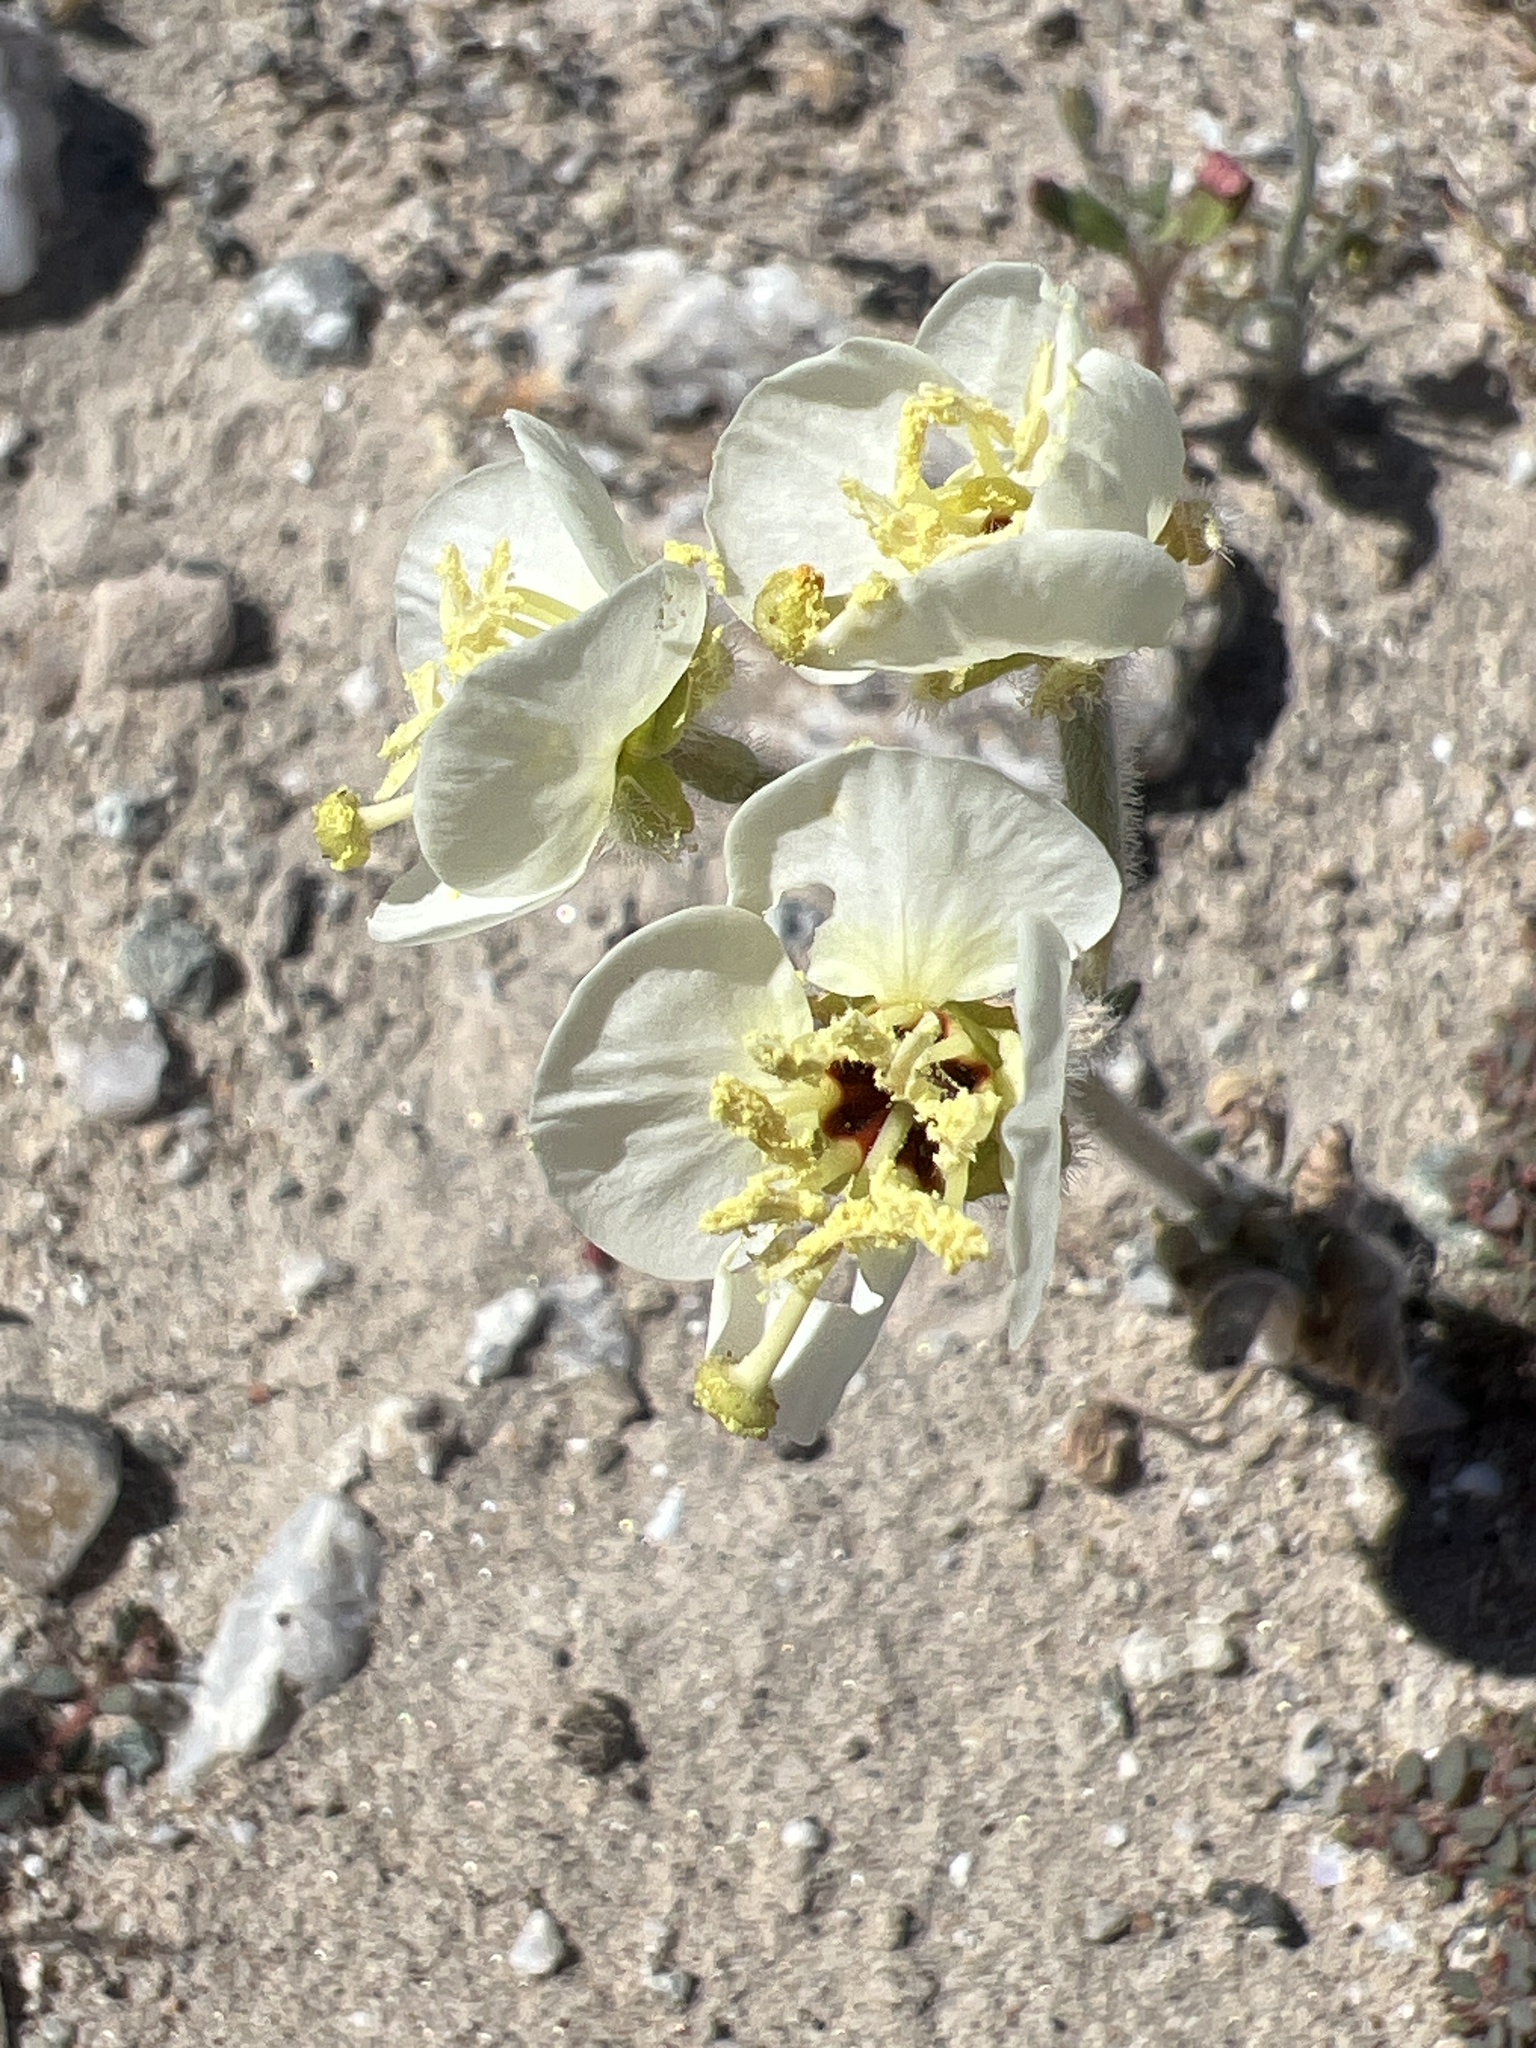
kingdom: Plantae
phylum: Tracheophyta
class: Magnoliopsida
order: Myrtales
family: Onagraceae
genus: Chylismia
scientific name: Chylismia claviformis
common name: Browneyes
